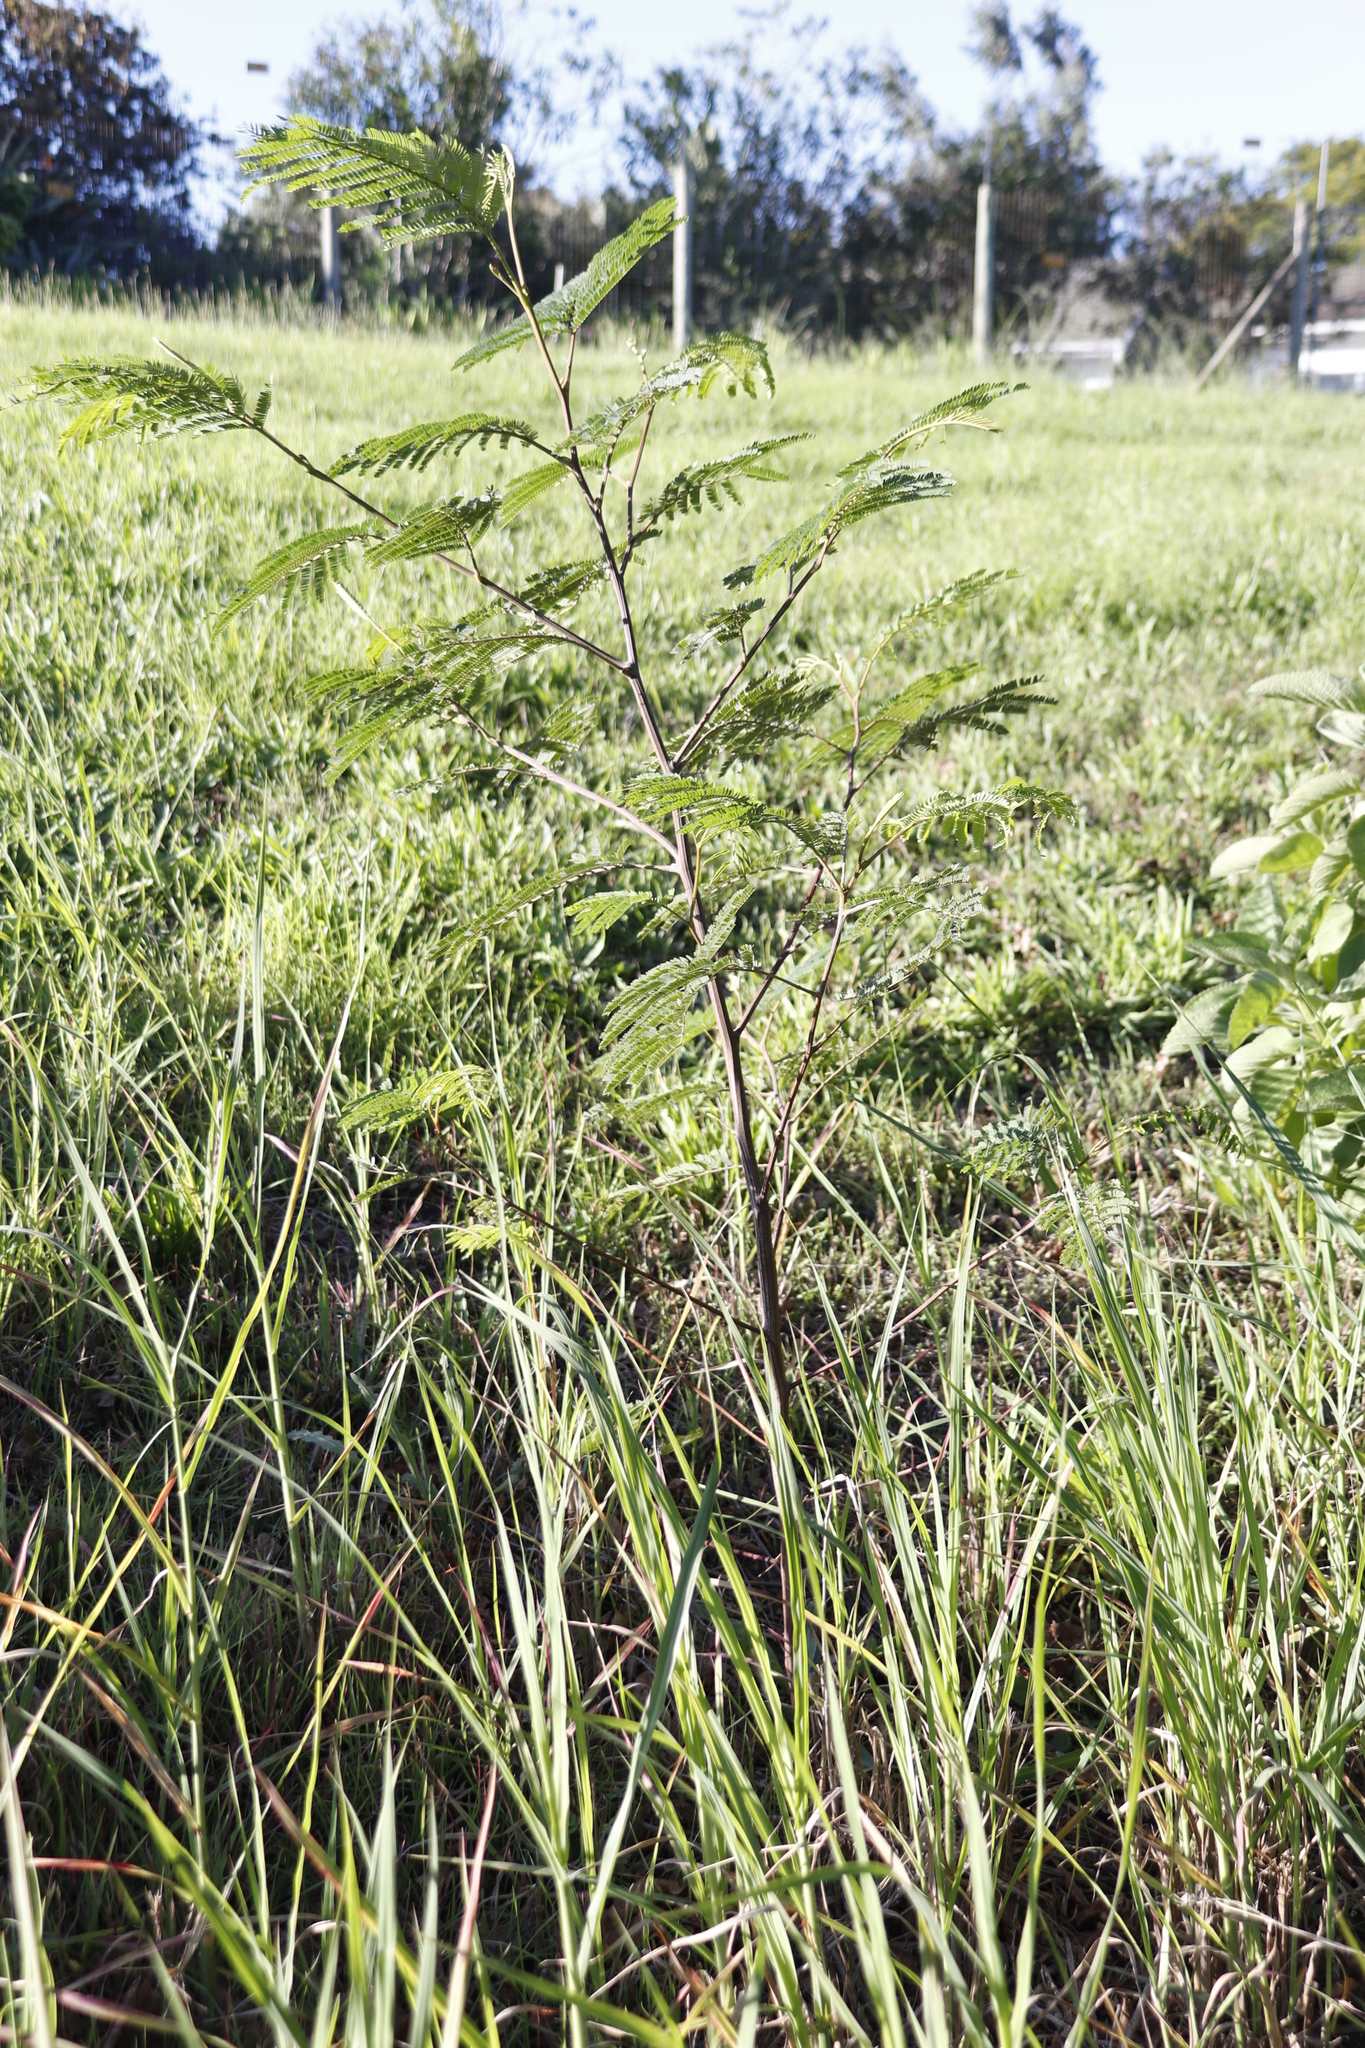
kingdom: Plantae
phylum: Tracheophyta
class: Magnoliopsida
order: Fabales
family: Fabaceae
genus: Paraserianthes
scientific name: Paraserianthes lophantha
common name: Plume albizia
